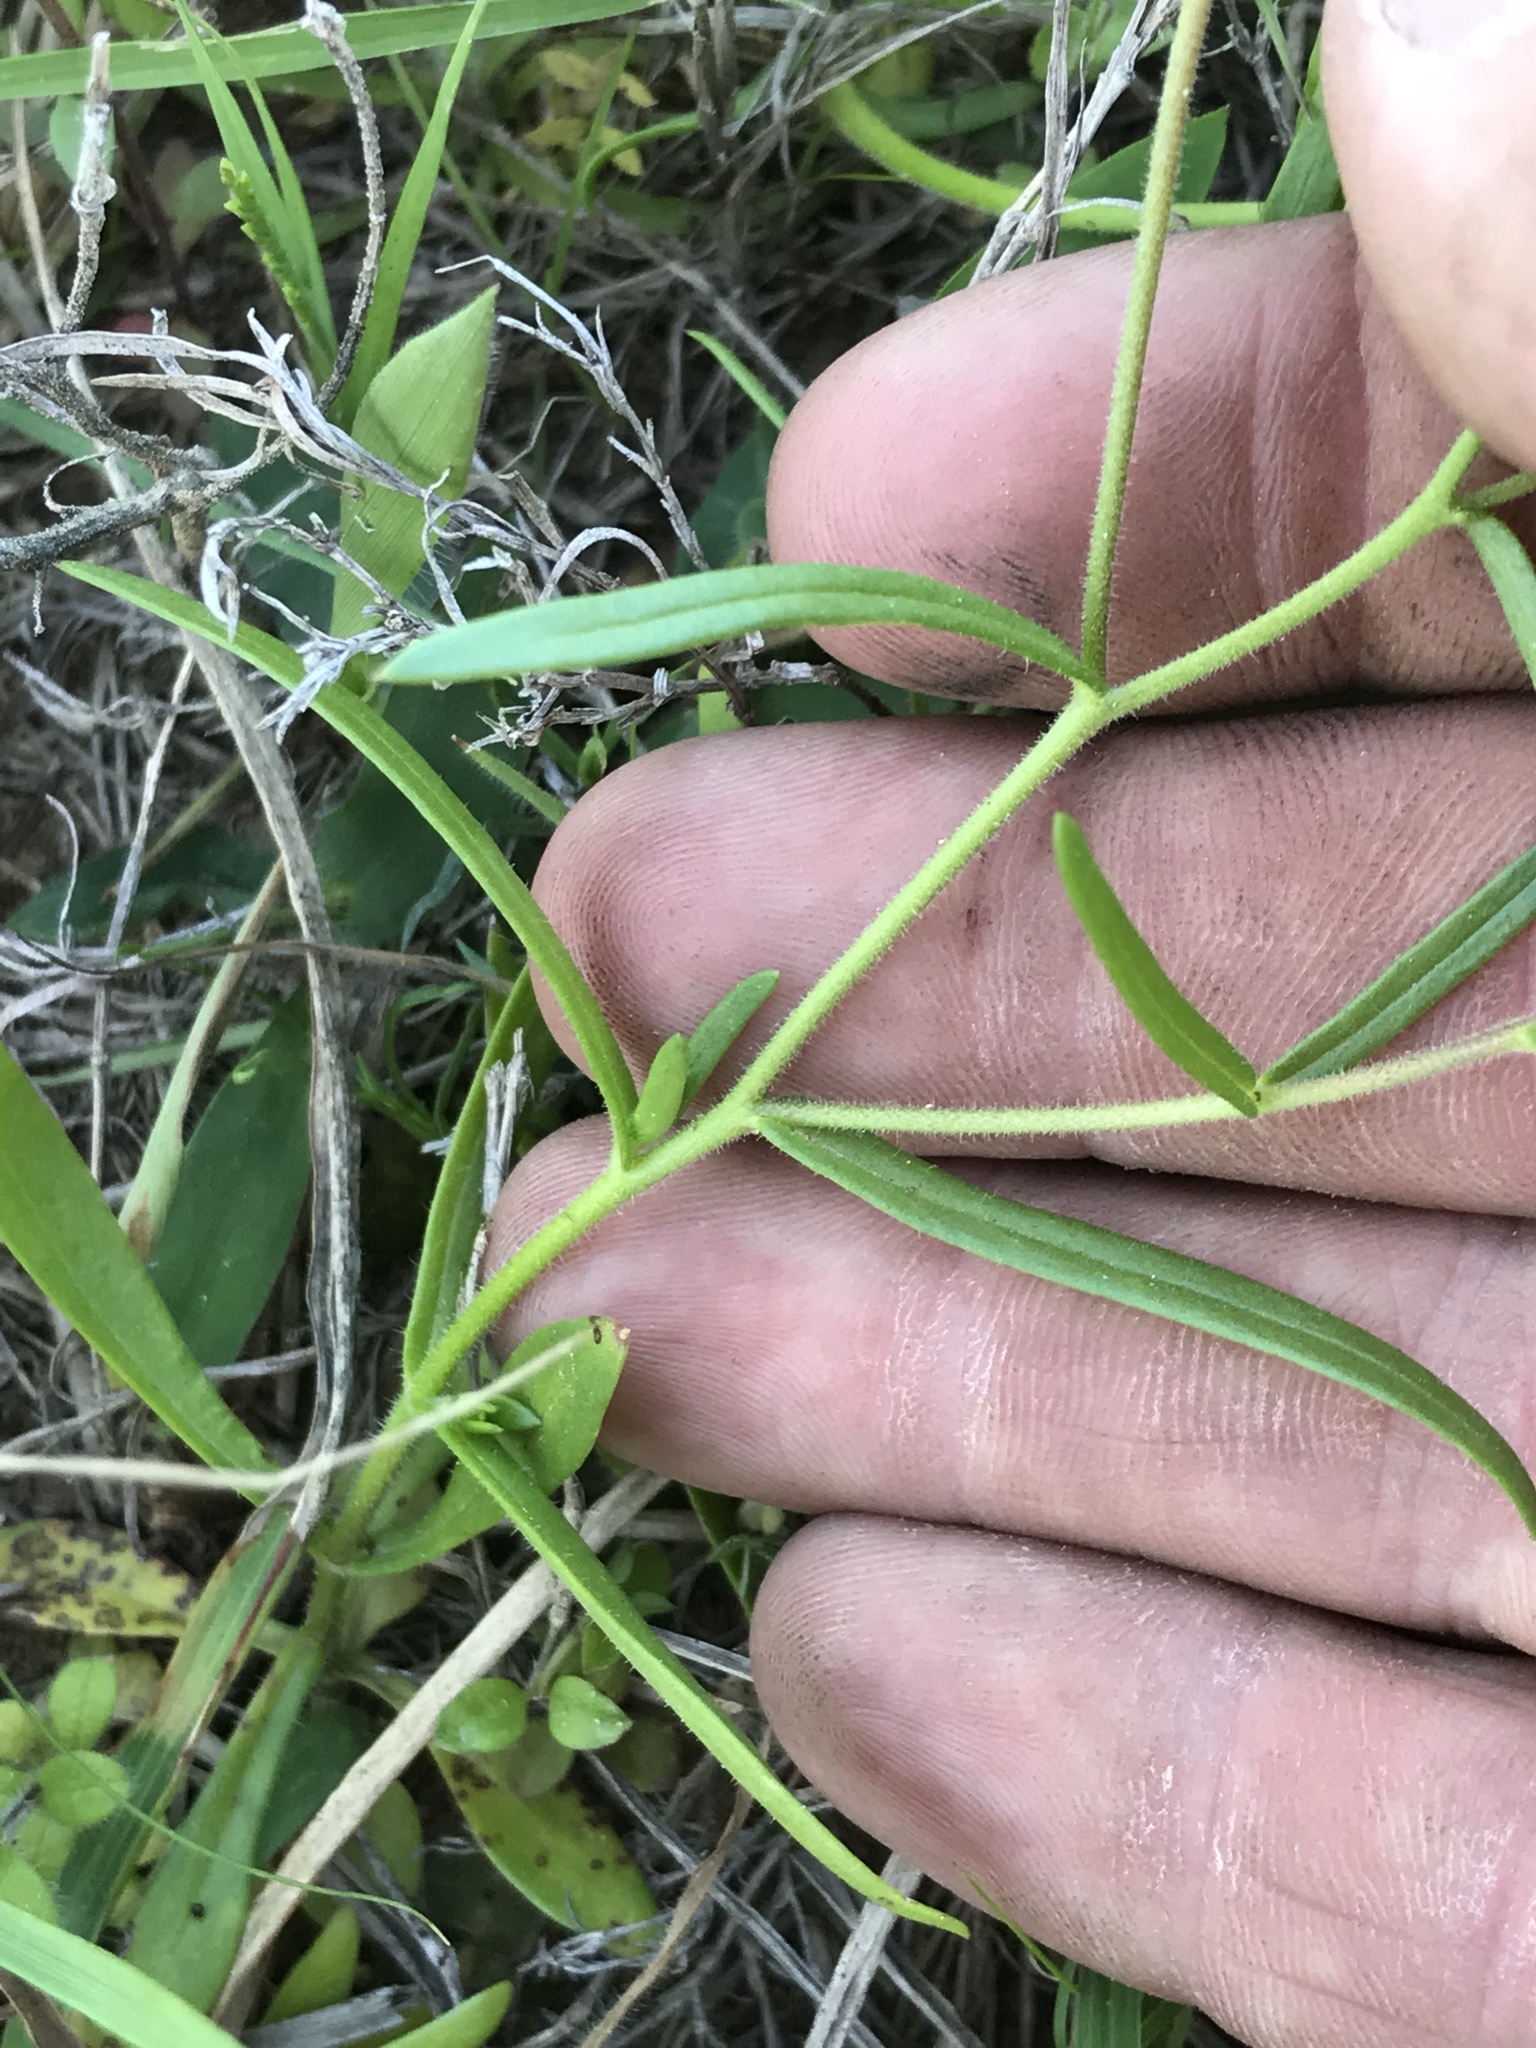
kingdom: Plantae
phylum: Tracheophyta
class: Magnoliopsida
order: Ericales
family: Polemoniaceae
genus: Phlox
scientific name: Phlox cuspidata
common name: Pointed phlox
